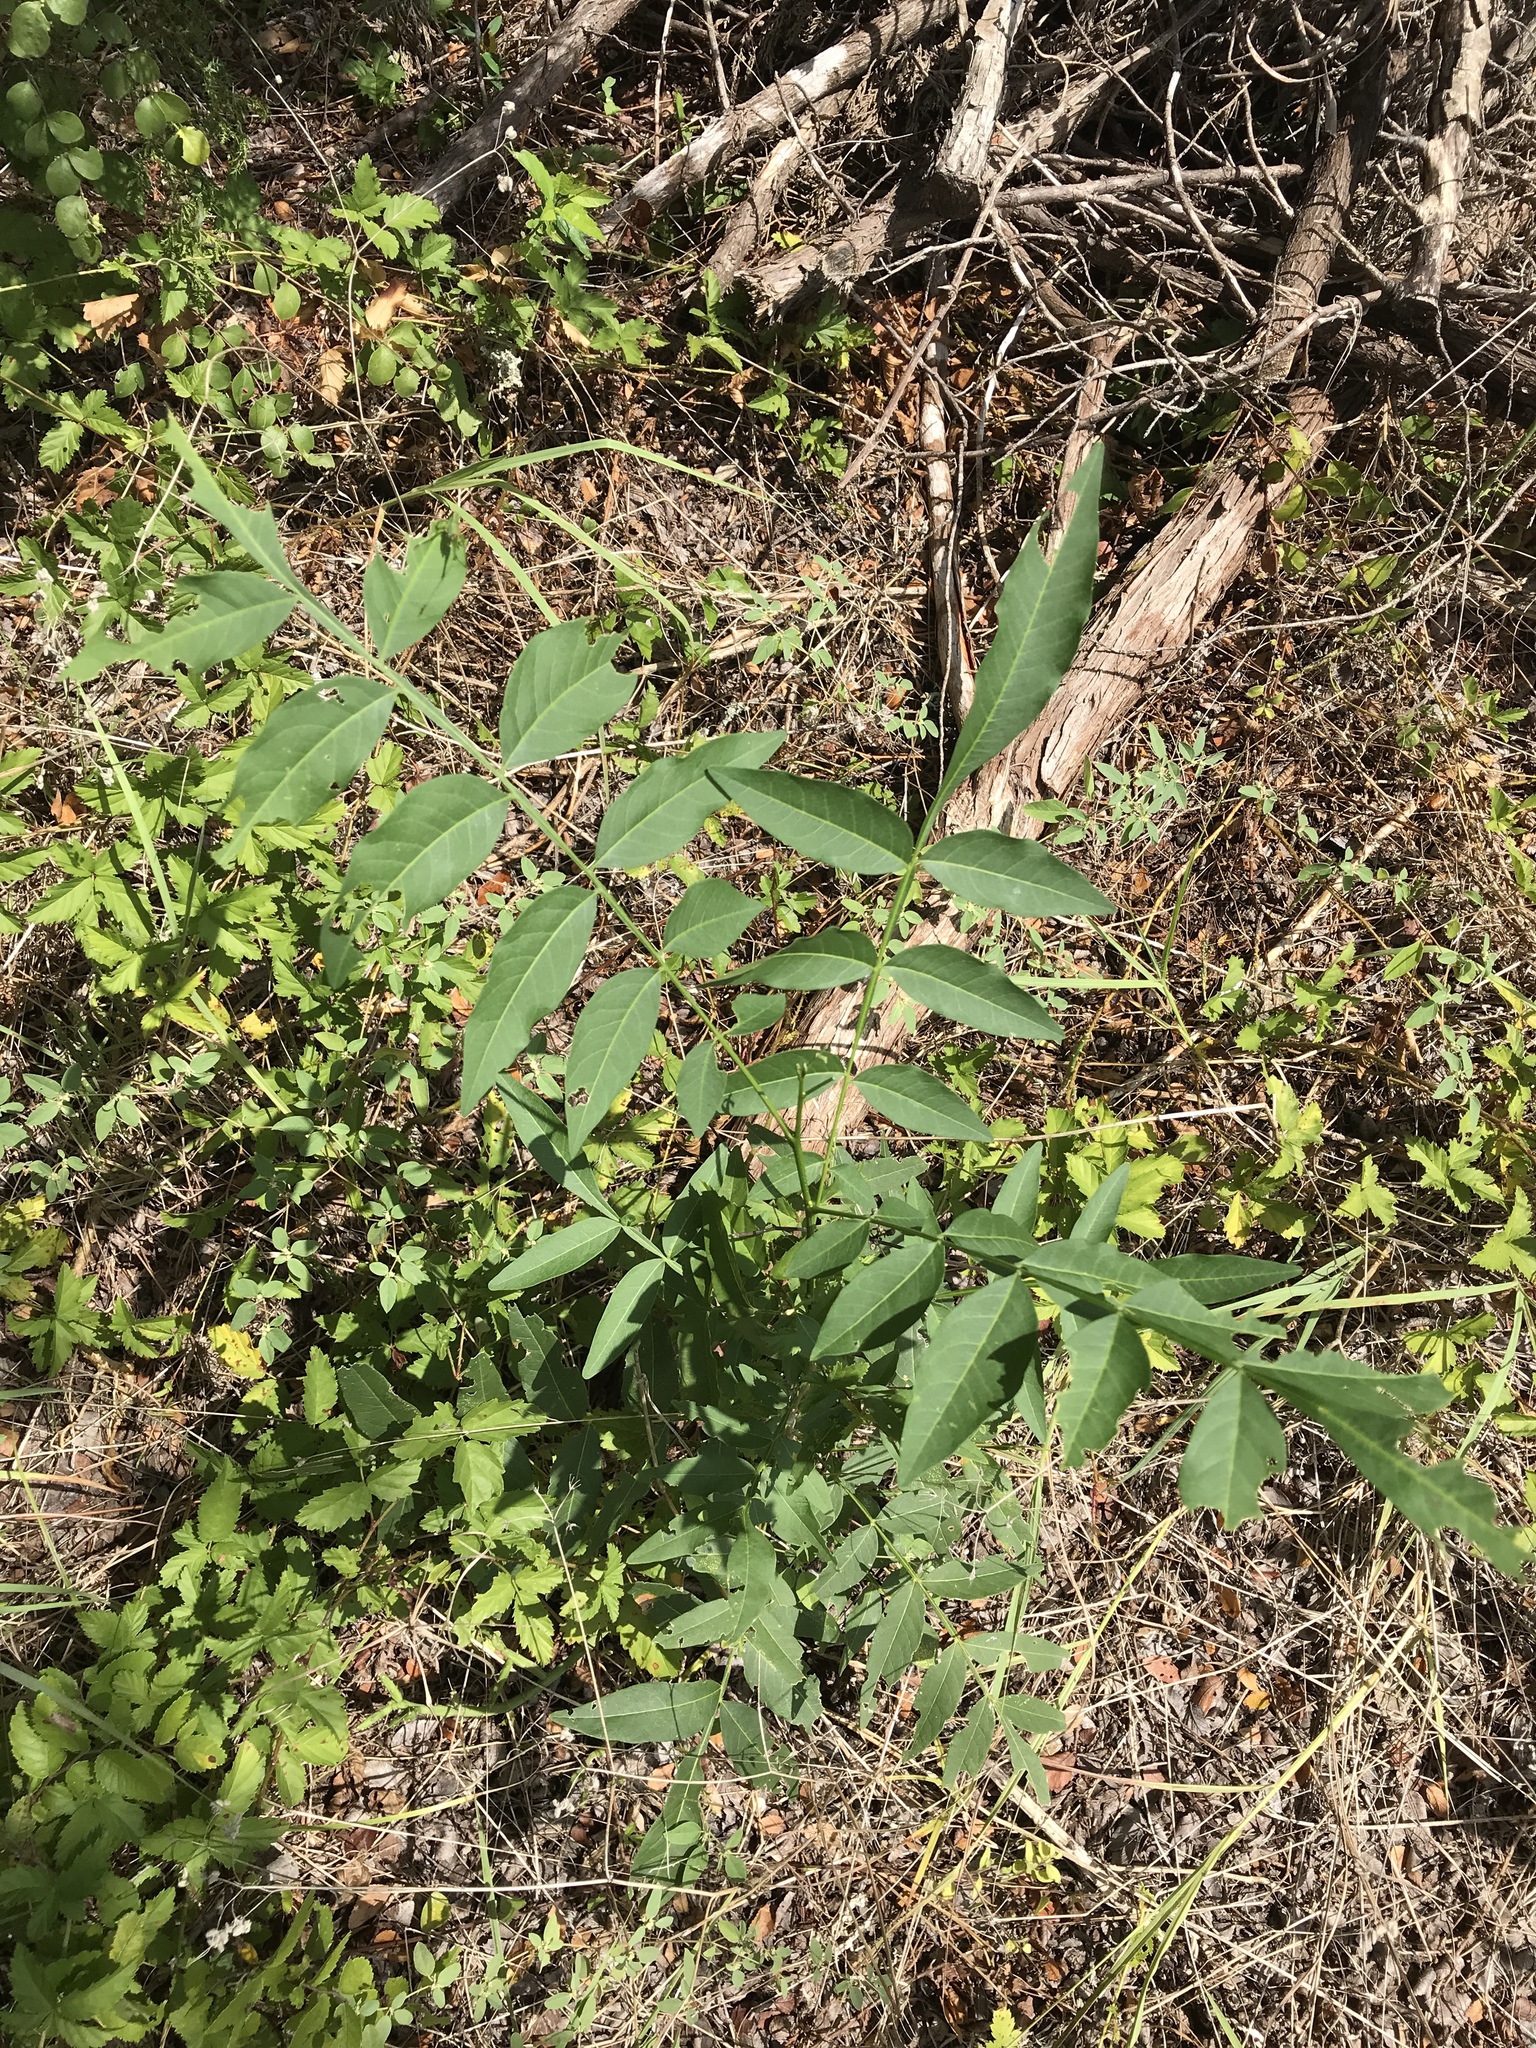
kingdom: Plantae
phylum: Tracheophyta
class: Magnoliopsida
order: Sapindales
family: Sapindaceae
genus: Sapindus
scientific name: Sapindus drummondii
